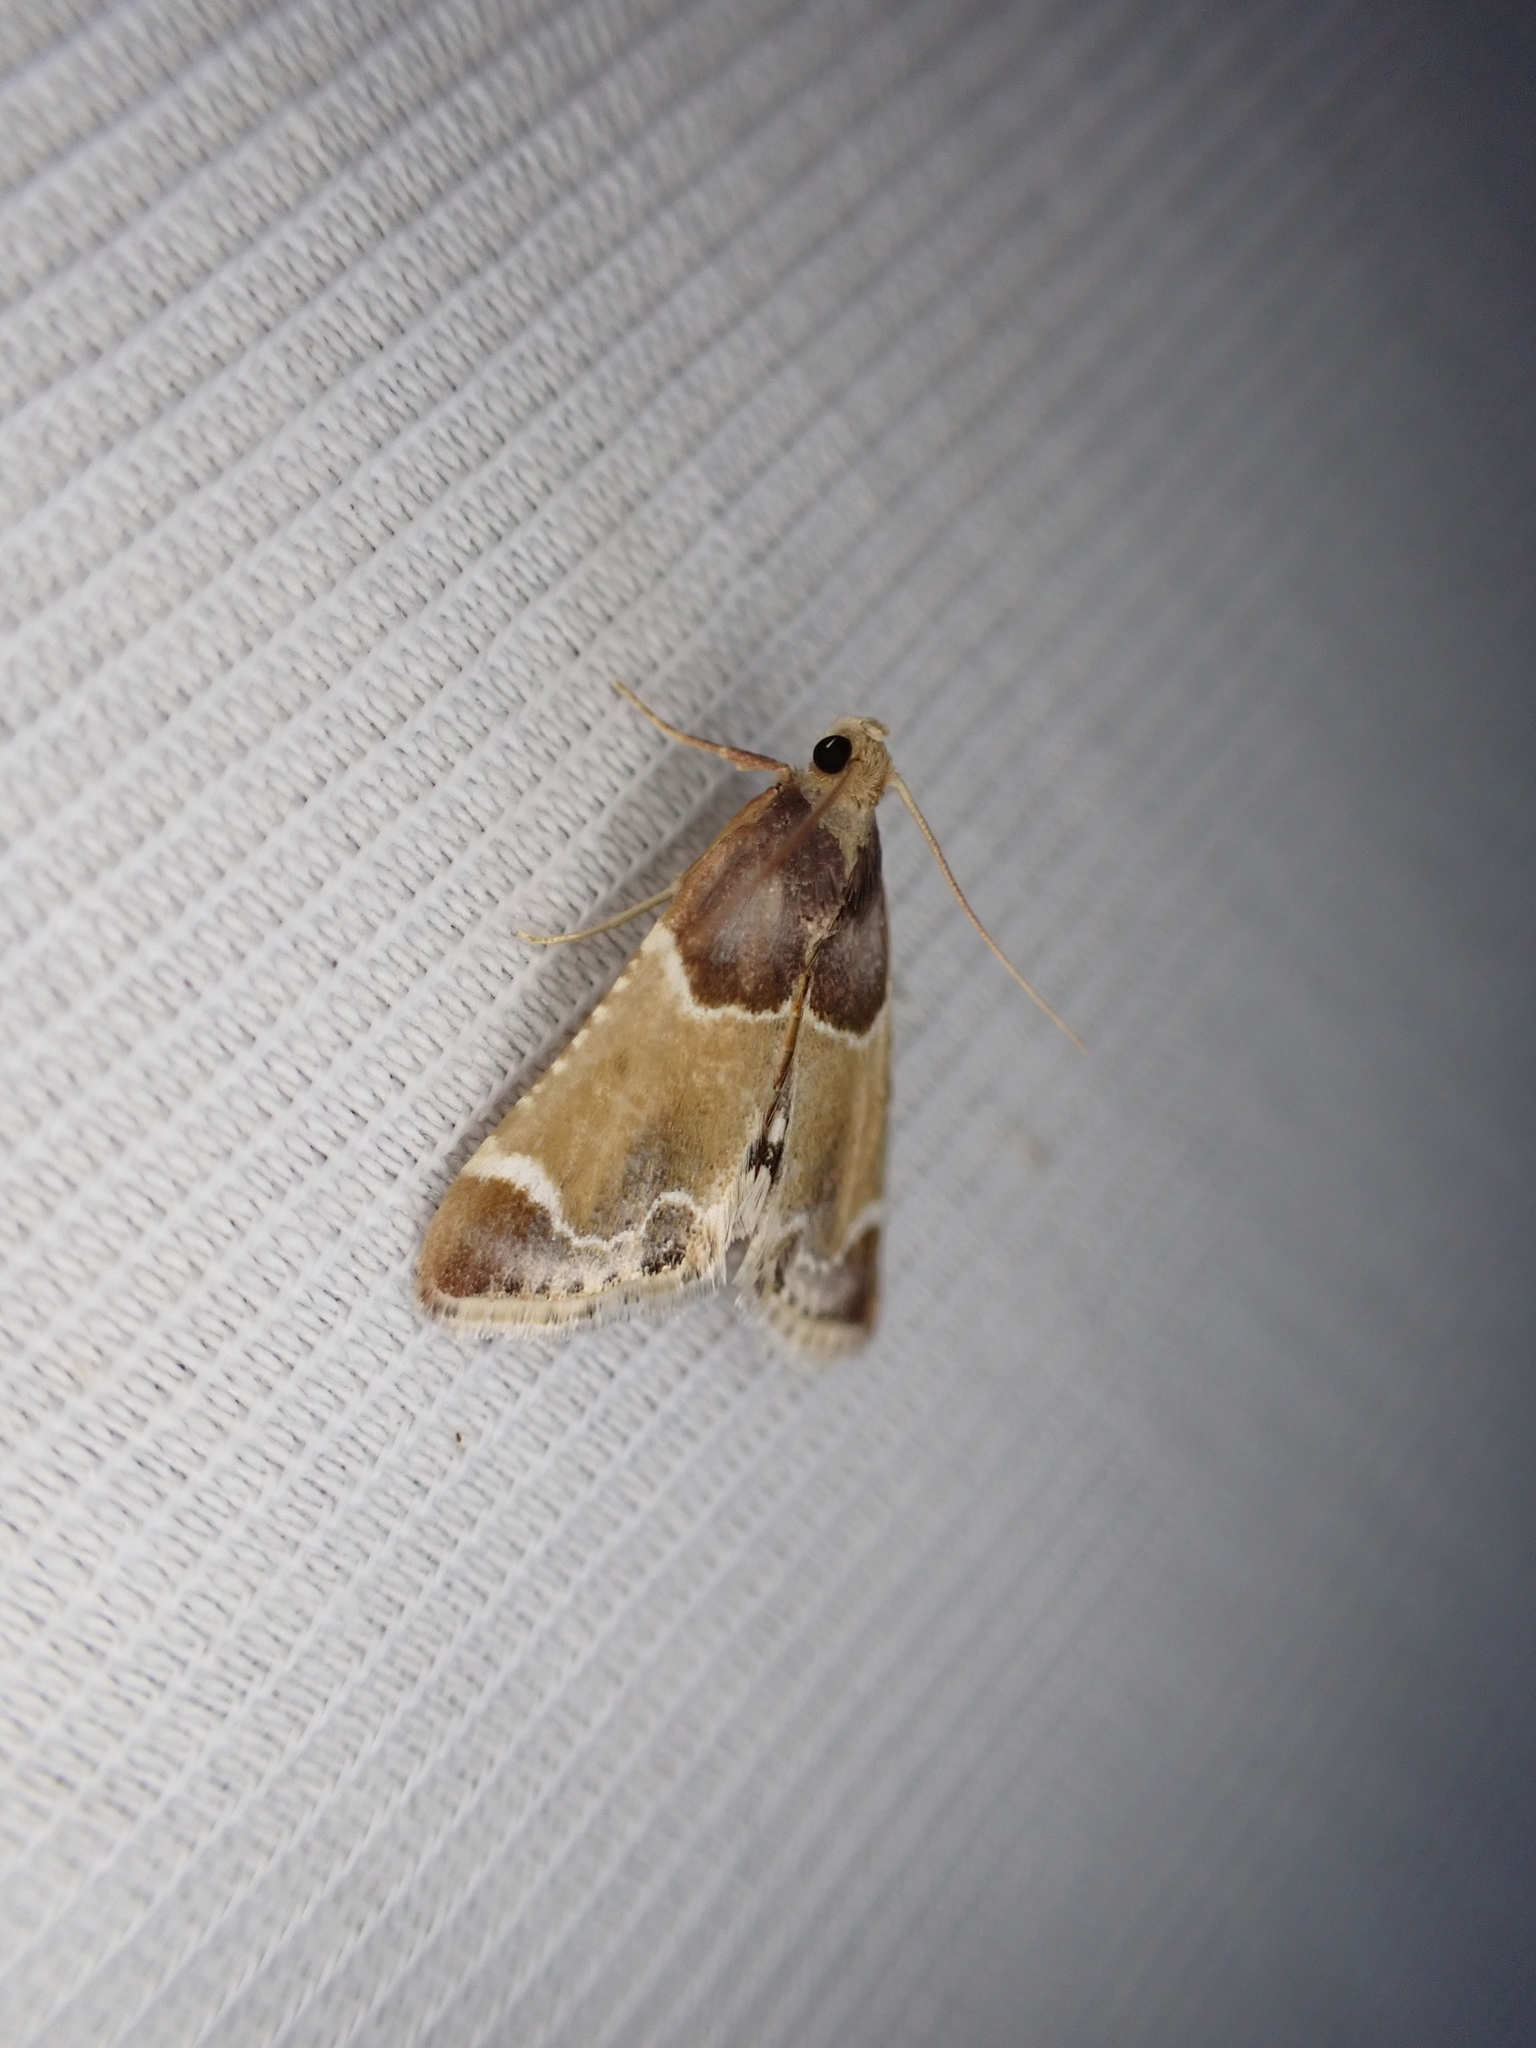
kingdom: Animalia
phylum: Arthropoda
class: Insecta
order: Lepidoptera
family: Pyralidae
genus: Pyralis
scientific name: Pyralis farinalis
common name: Meal moth
